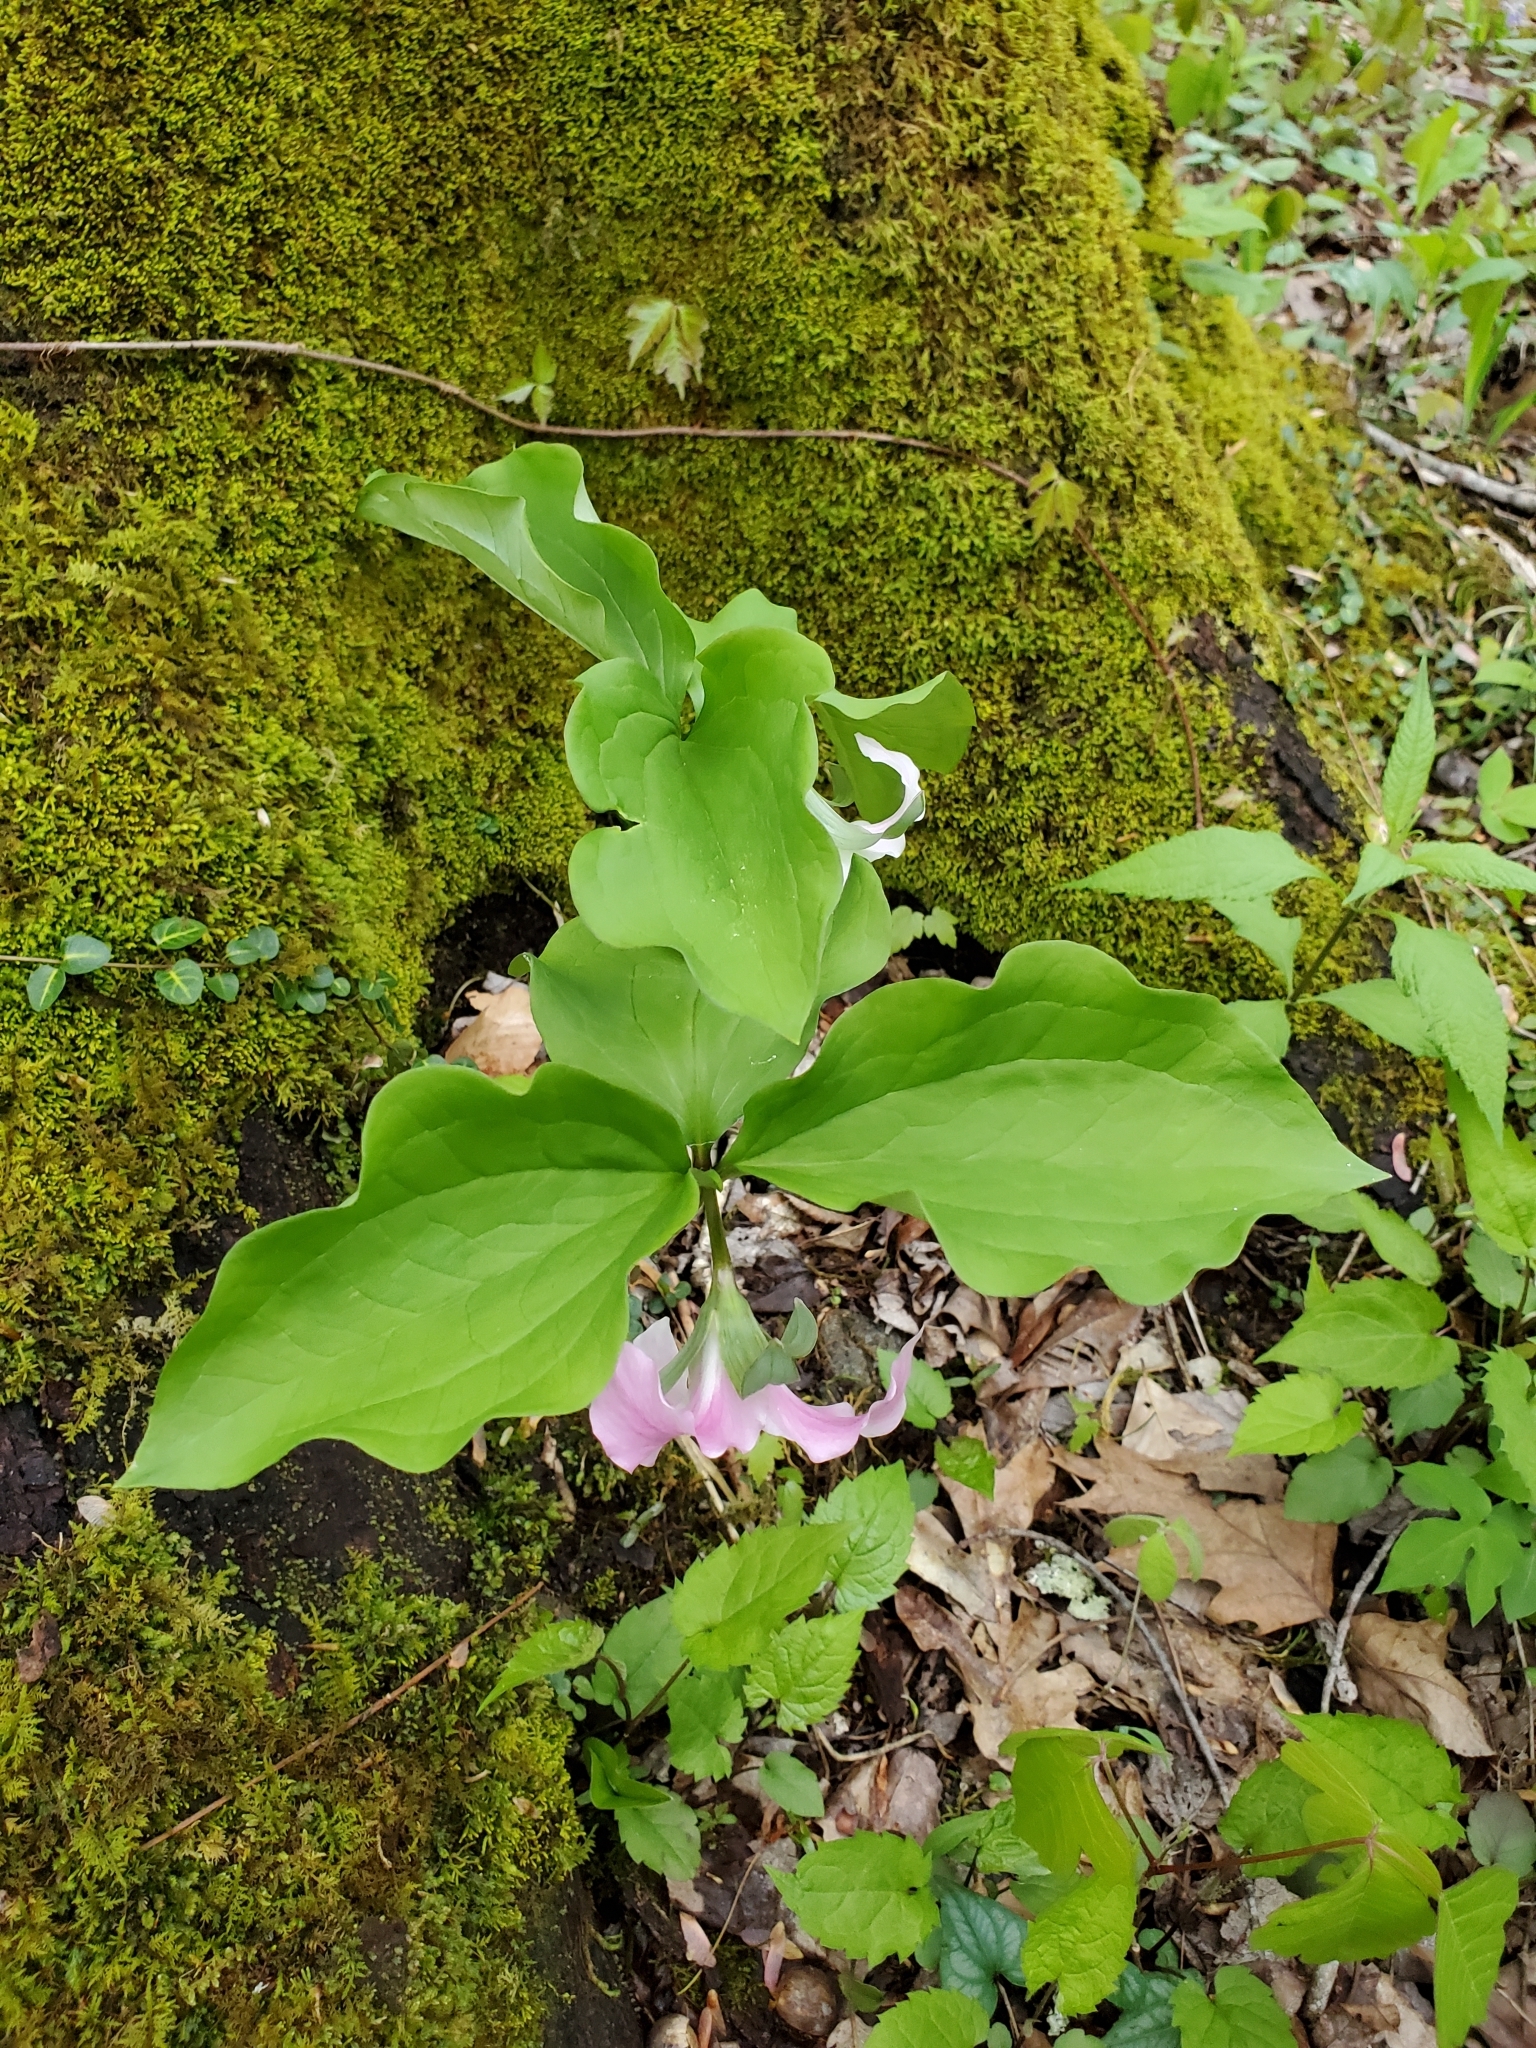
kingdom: Plantae
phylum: Tracheophyta
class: Liliopsida
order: Liliales
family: Melanthiaceae
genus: Trillium
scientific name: Trillium catesbaei
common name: Bashful trillium
